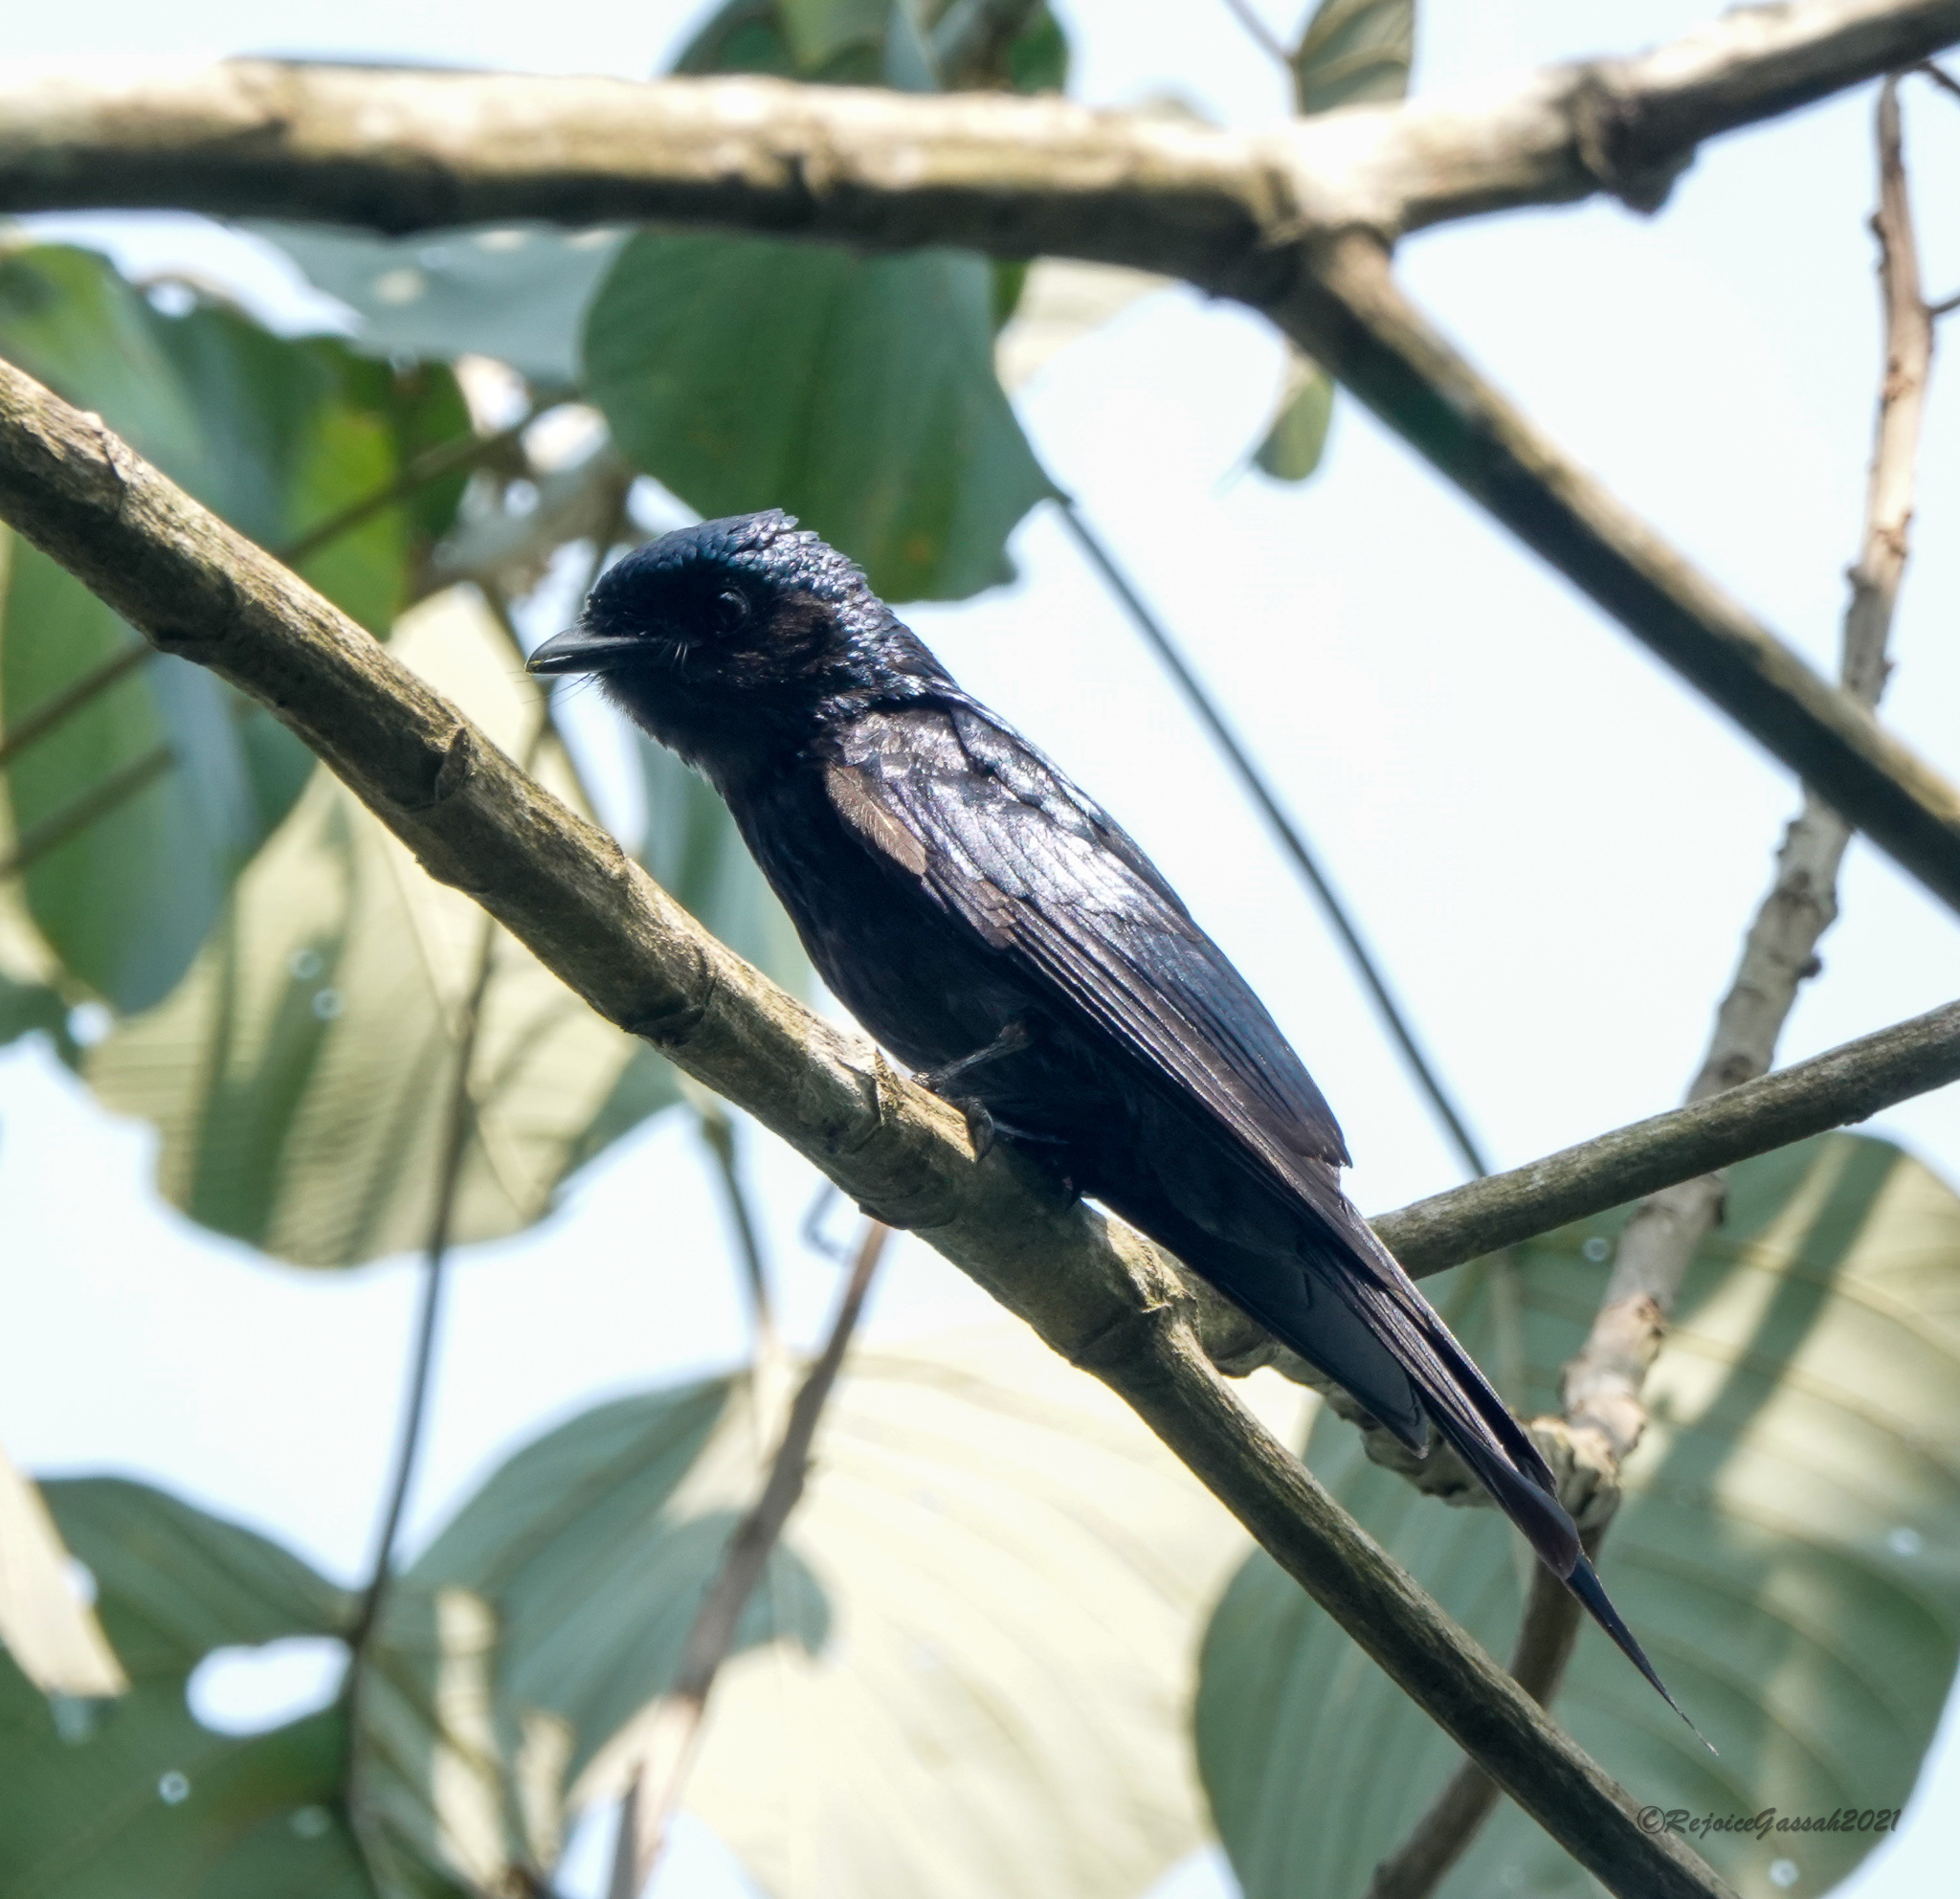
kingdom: Animalia
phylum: Chordata
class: Aves
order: Passeriformes
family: Dicruridae
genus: Dicrurus
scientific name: Dicrurus aeneus
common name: Bronzed drongo
